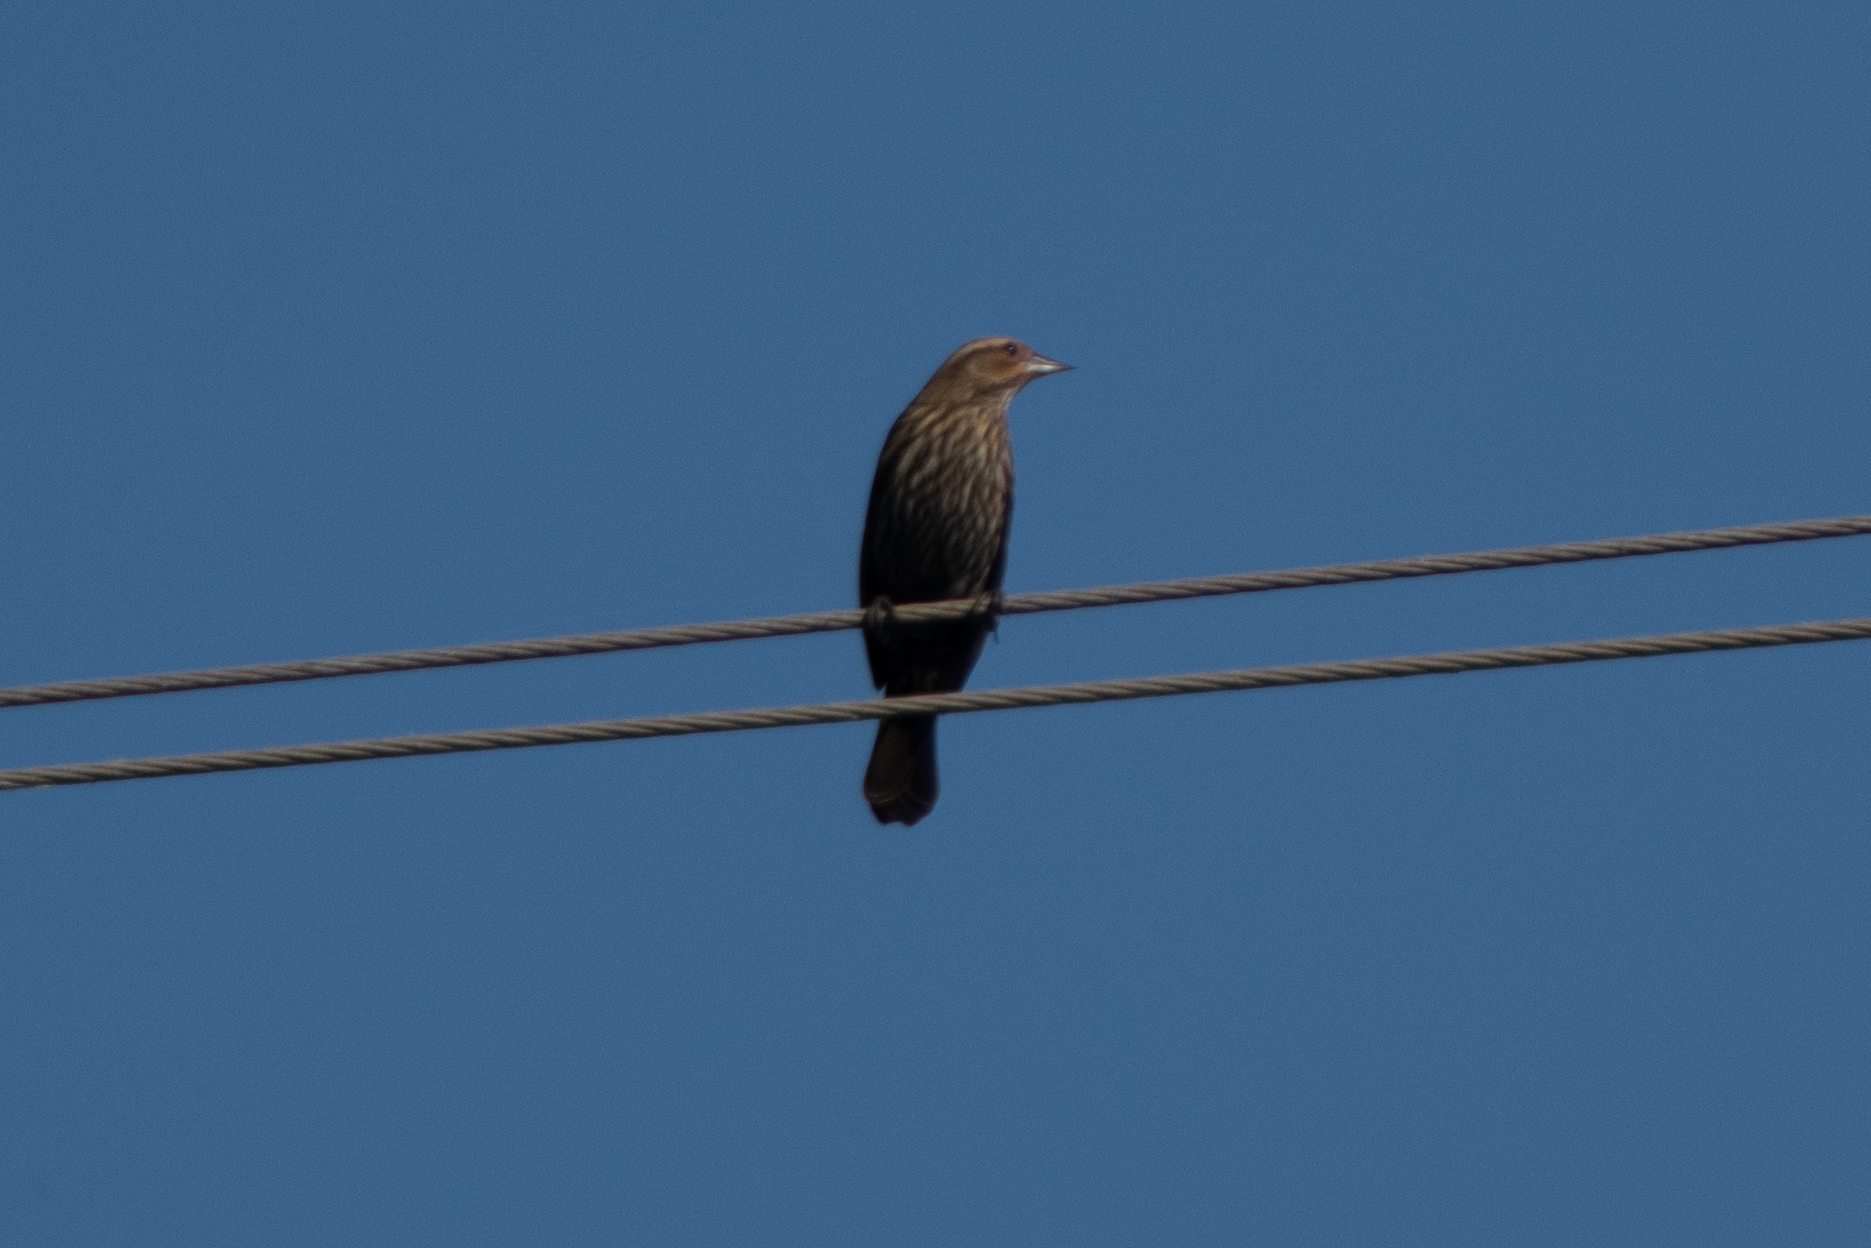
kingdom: Animalia
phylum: Chordata
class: Aves
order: Passeriformes
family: Icteridae
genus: Agelaius
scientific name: Agelaius phoeniceus
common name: Red-winged blackbird
